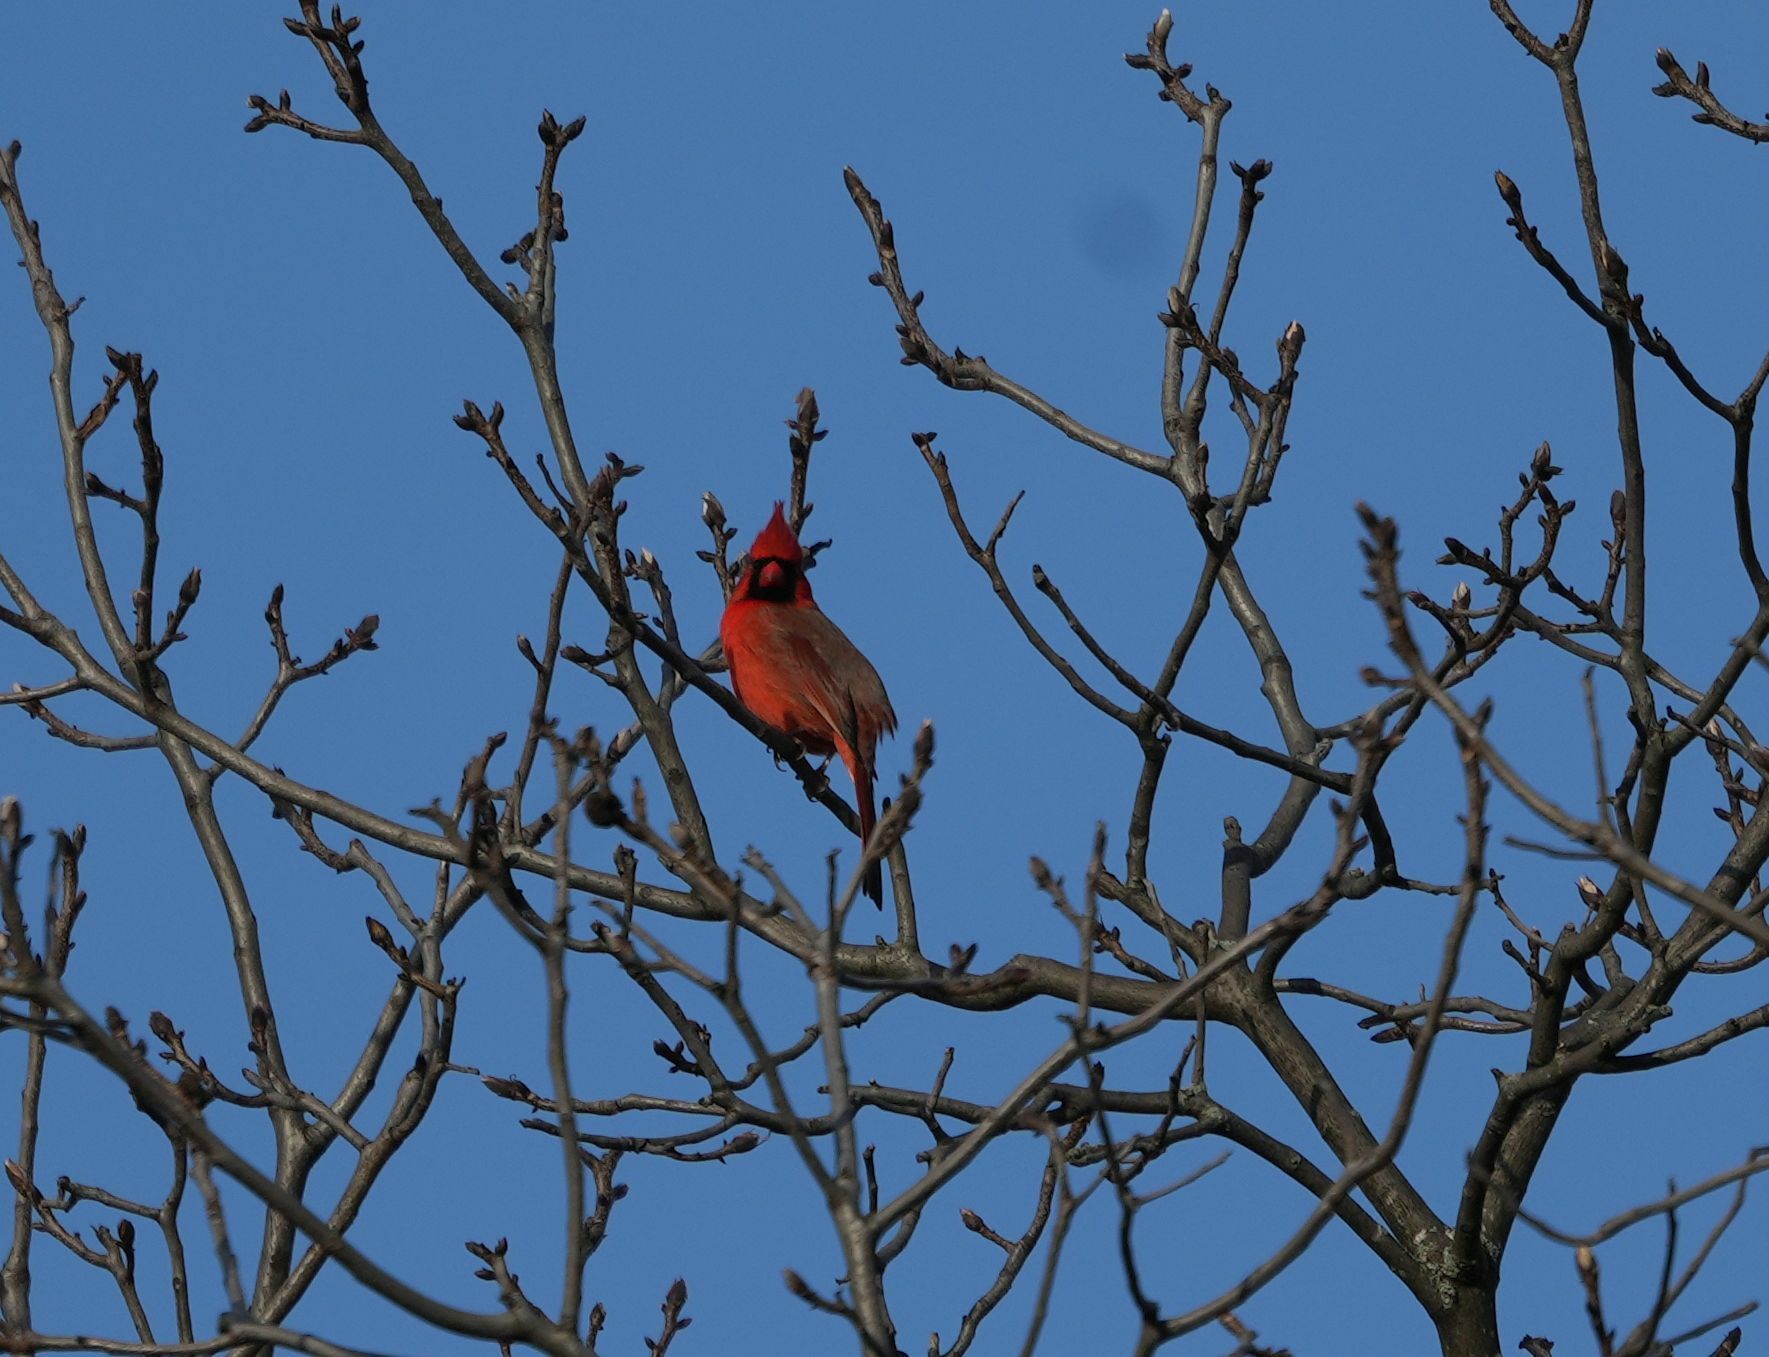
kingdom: Animalia
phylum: Chordata
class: Aves
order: Passeriformes
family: Cardinalidae
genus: Cardinalis
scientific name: Cardinalis cardinalis
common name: Northern cardinal
